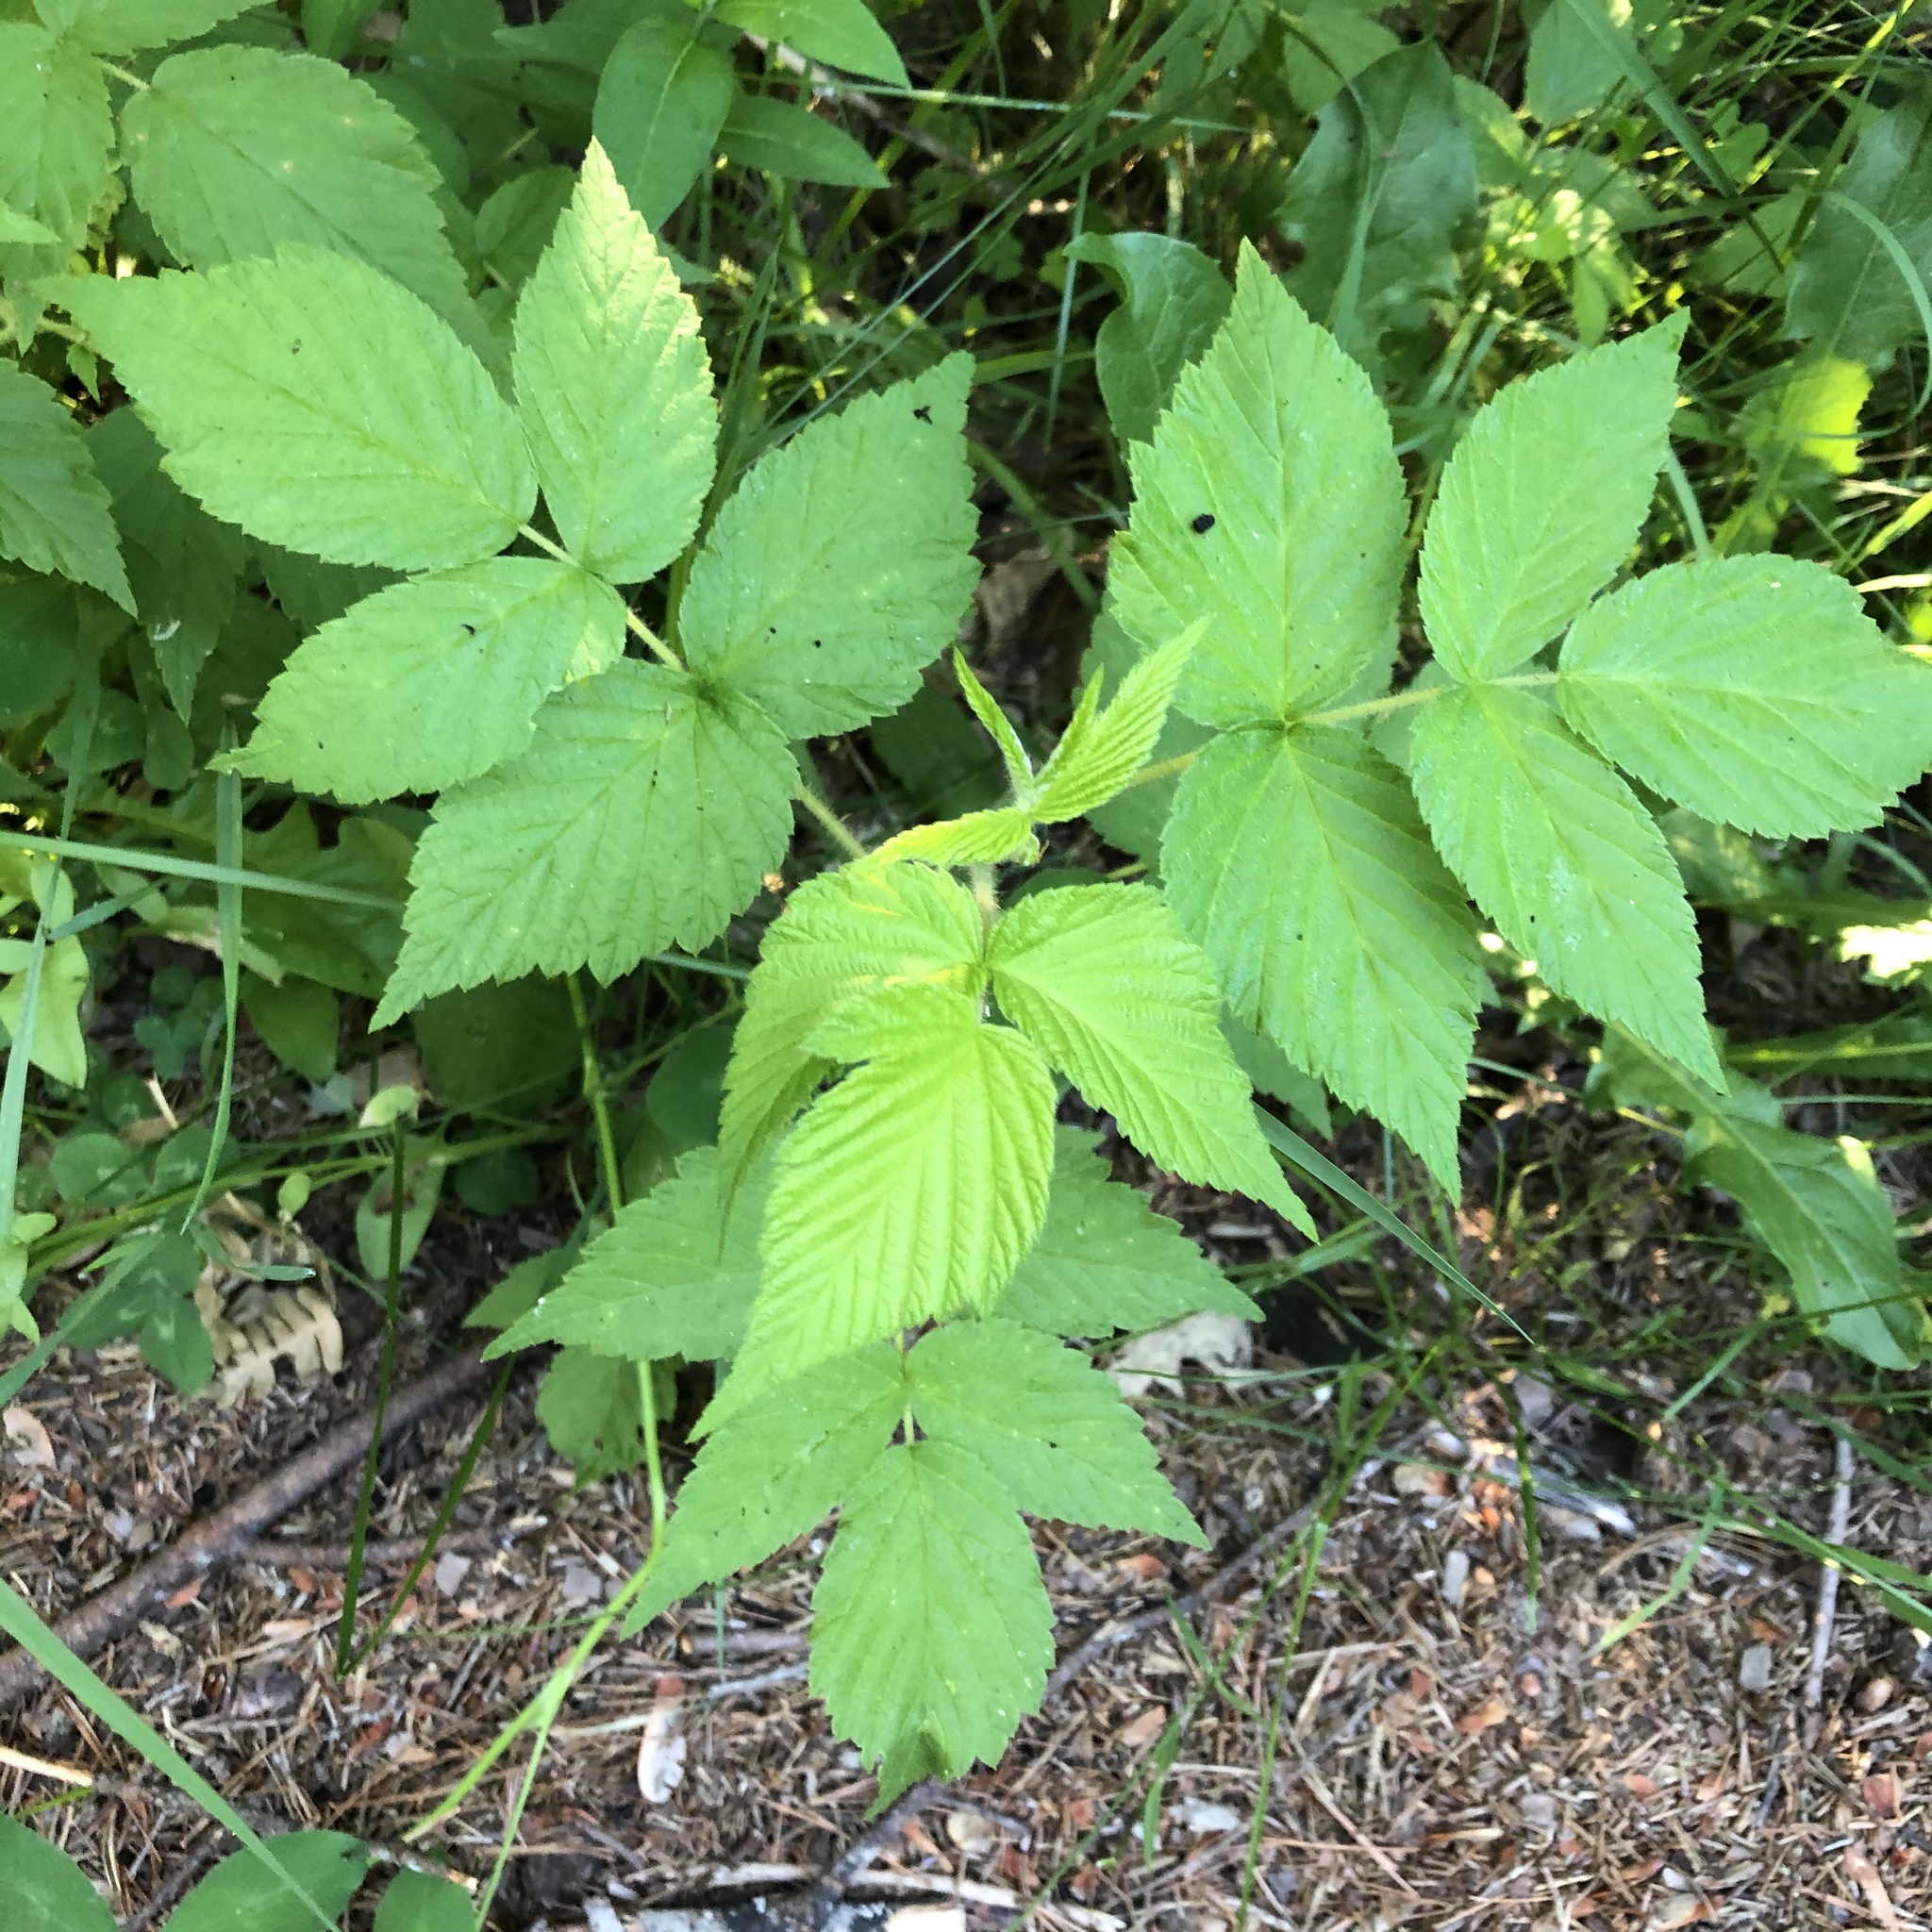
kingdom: Plantae
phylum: Tracheophyta
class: Magnoliopsida
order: Rosales
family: Rosaceae
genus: Rubus
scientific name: Rubus idaeus
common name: Raspberry
